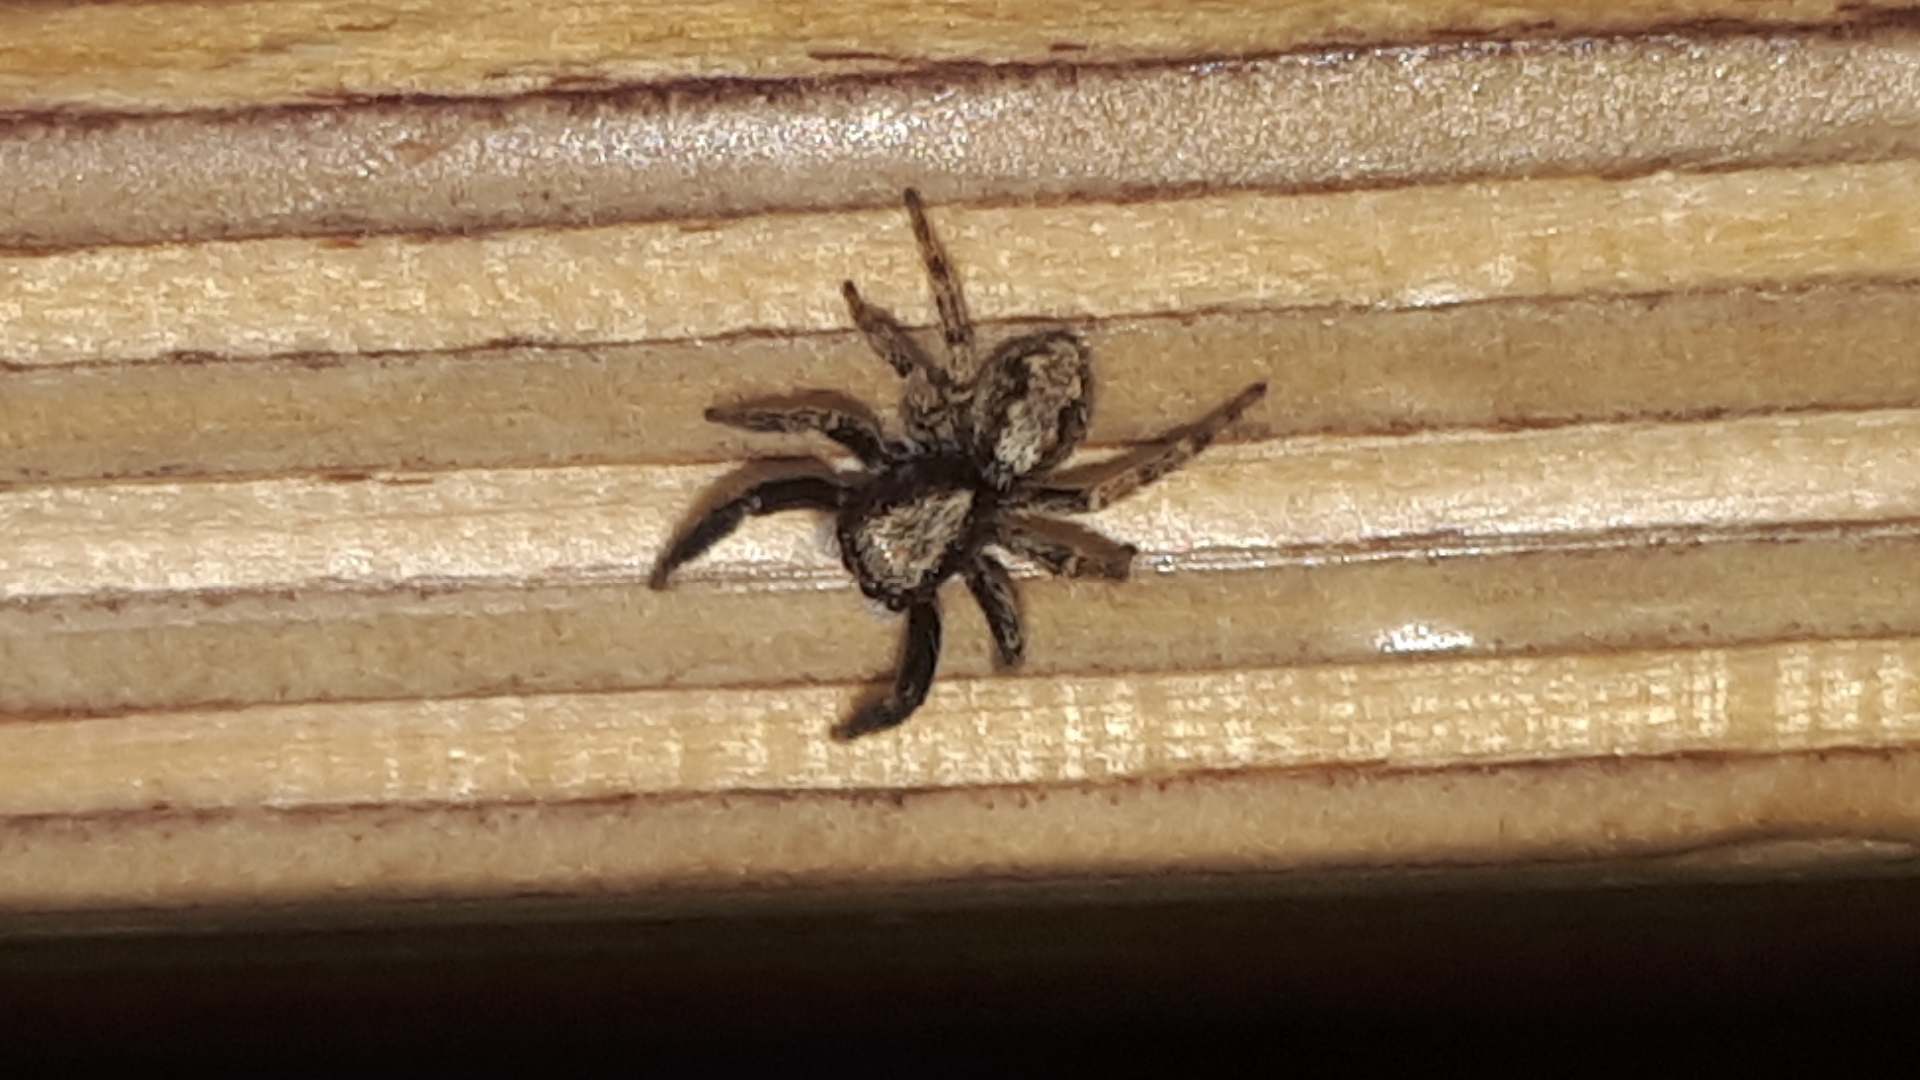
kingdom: Animalia
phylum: Arthropoda
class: Arachnida
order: Araneae
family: Salticidae
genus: Pseudeuophrys
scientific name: Pseudeuophrys lanigera
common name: Jumping spider
